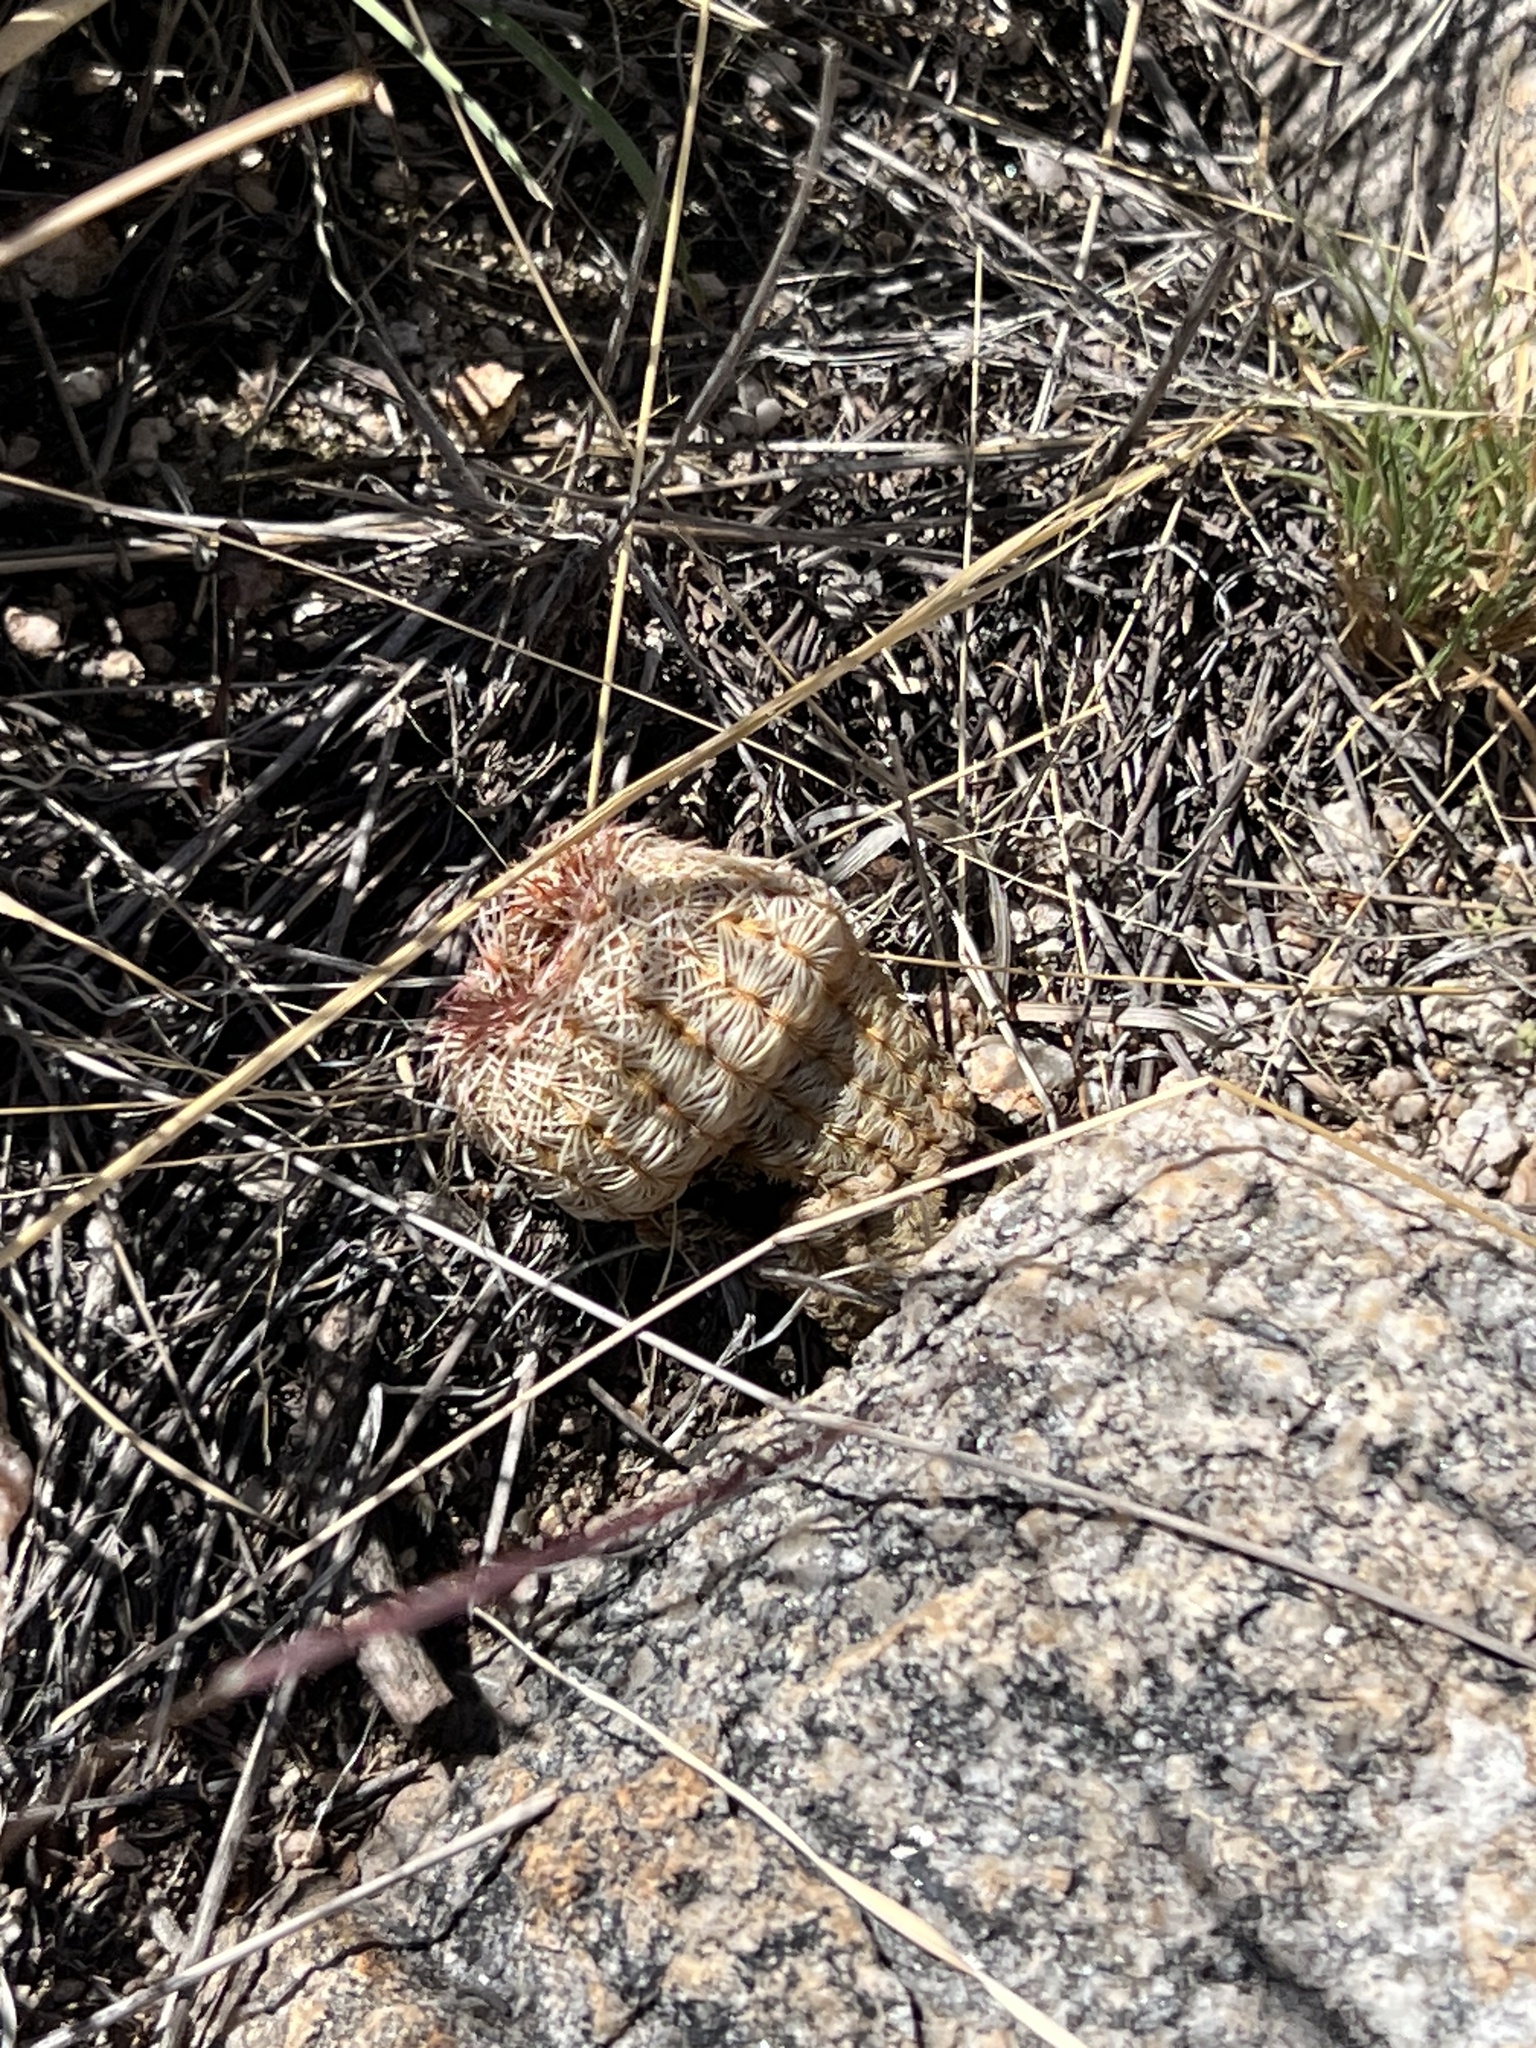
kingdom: Plantae
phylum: Tracheophyta
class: Magnoliopsida
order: Caryophyllales
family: Cactaceae
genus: Echinocereus
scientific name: Echinocereus rigidissimus
